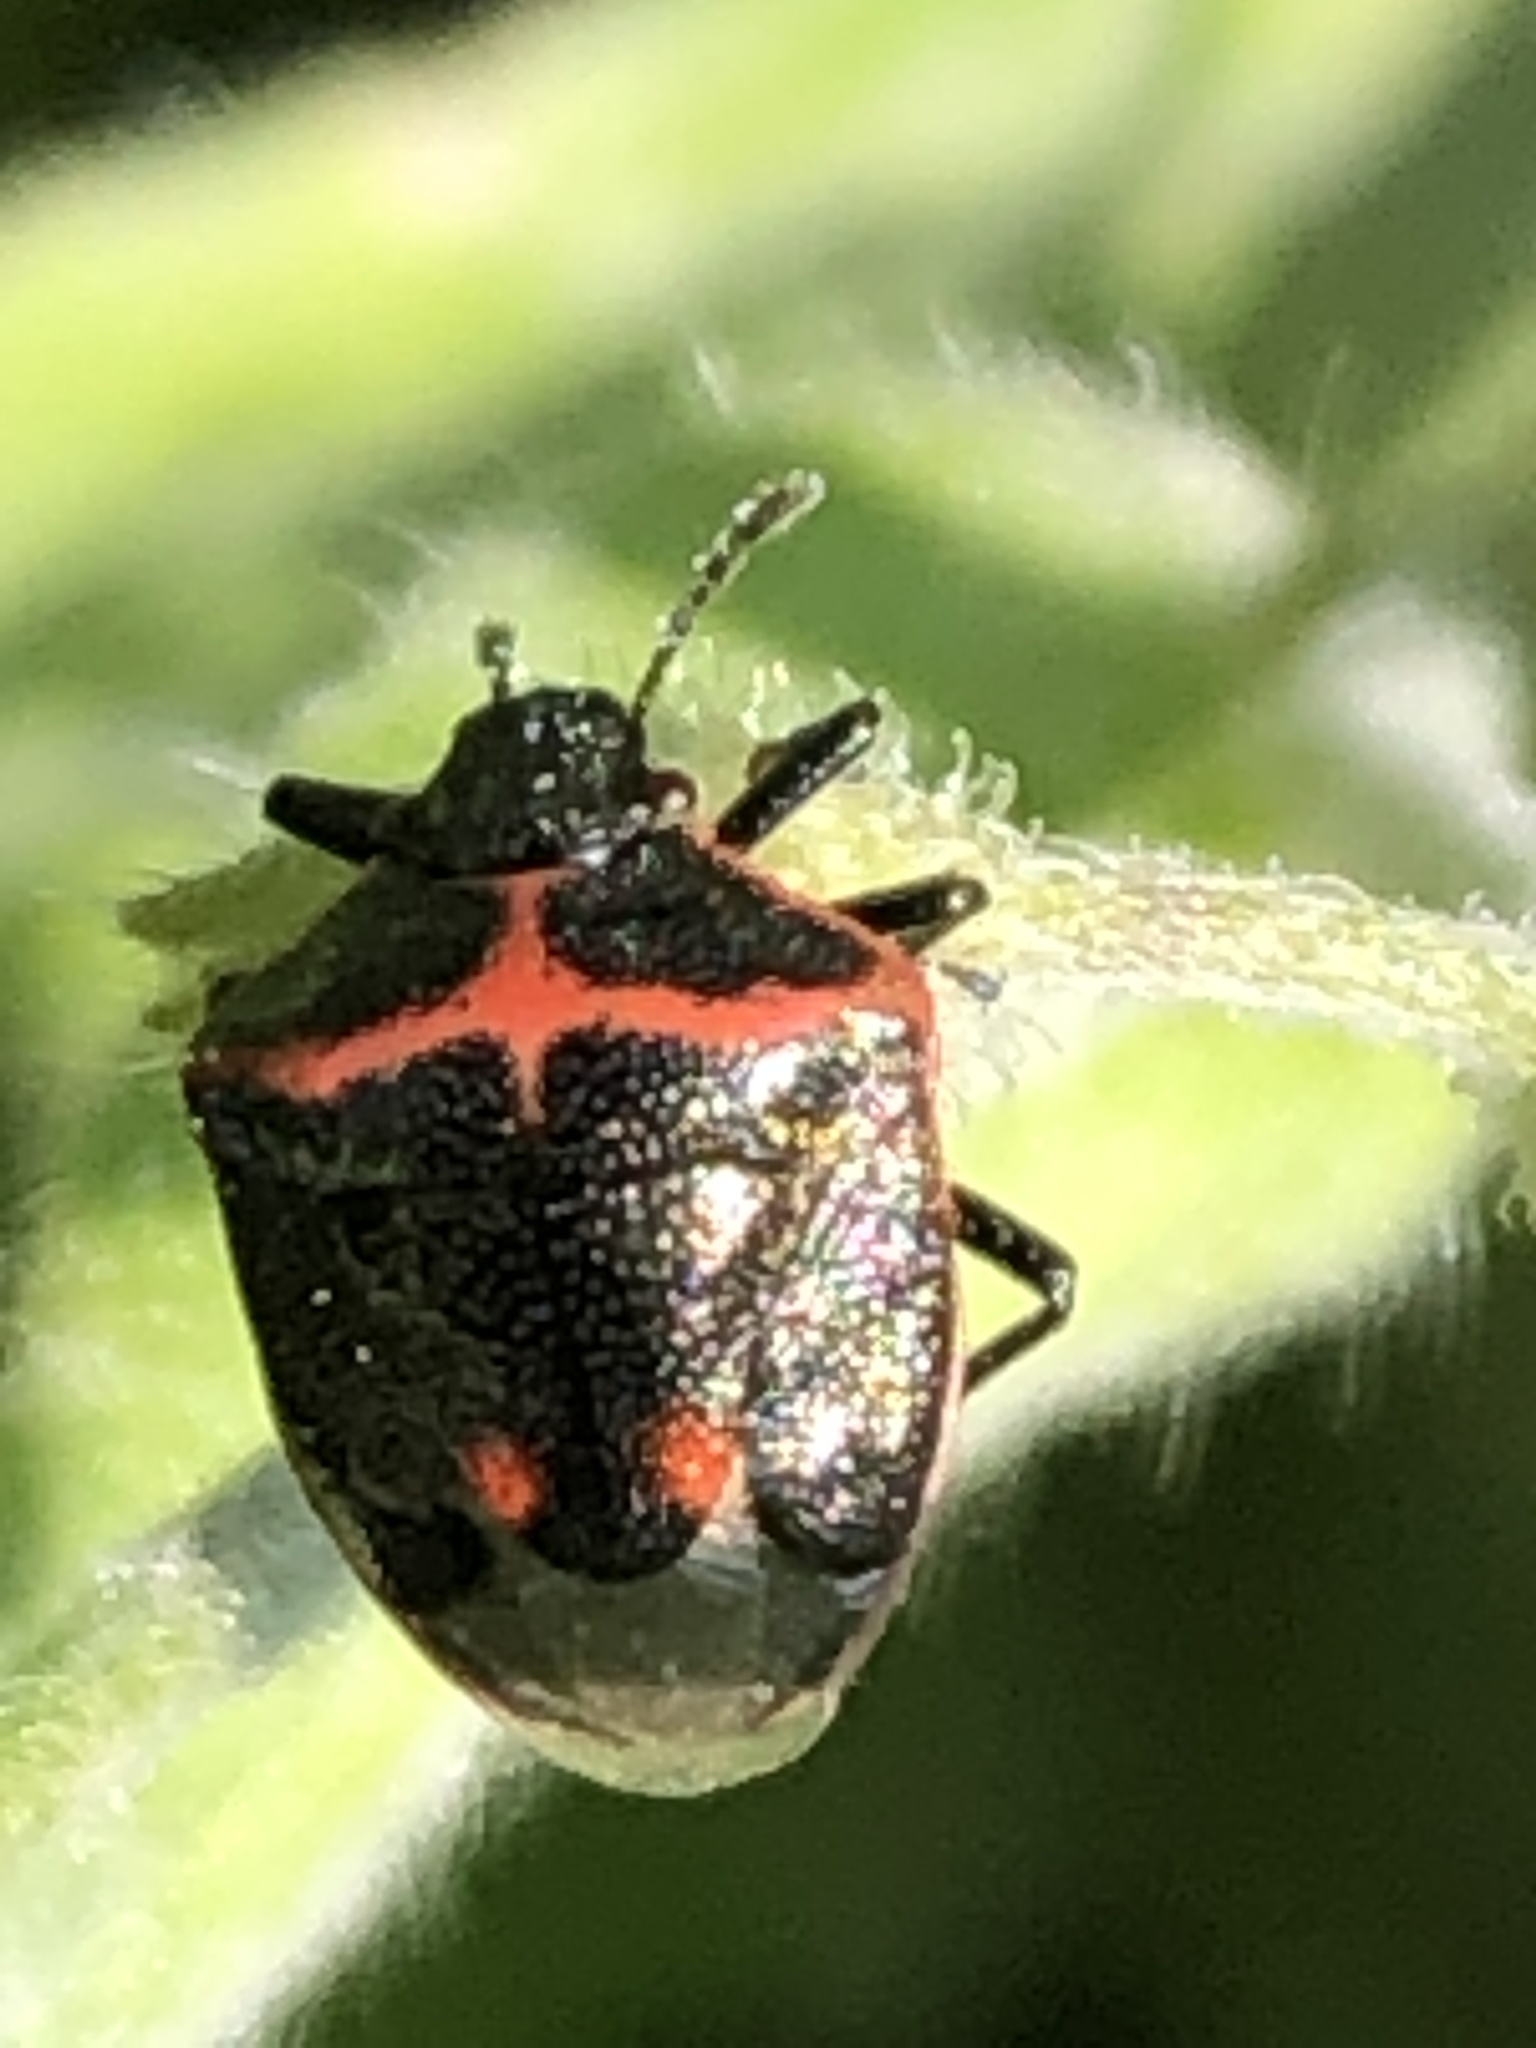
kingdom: Animalia
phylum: Arthropoda
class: Insecta
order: Hemiptera
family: Pentatomidae
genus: Cosmopepla
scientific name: Cosmopepla lintneriana
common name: Twice-stabbed stink bug
